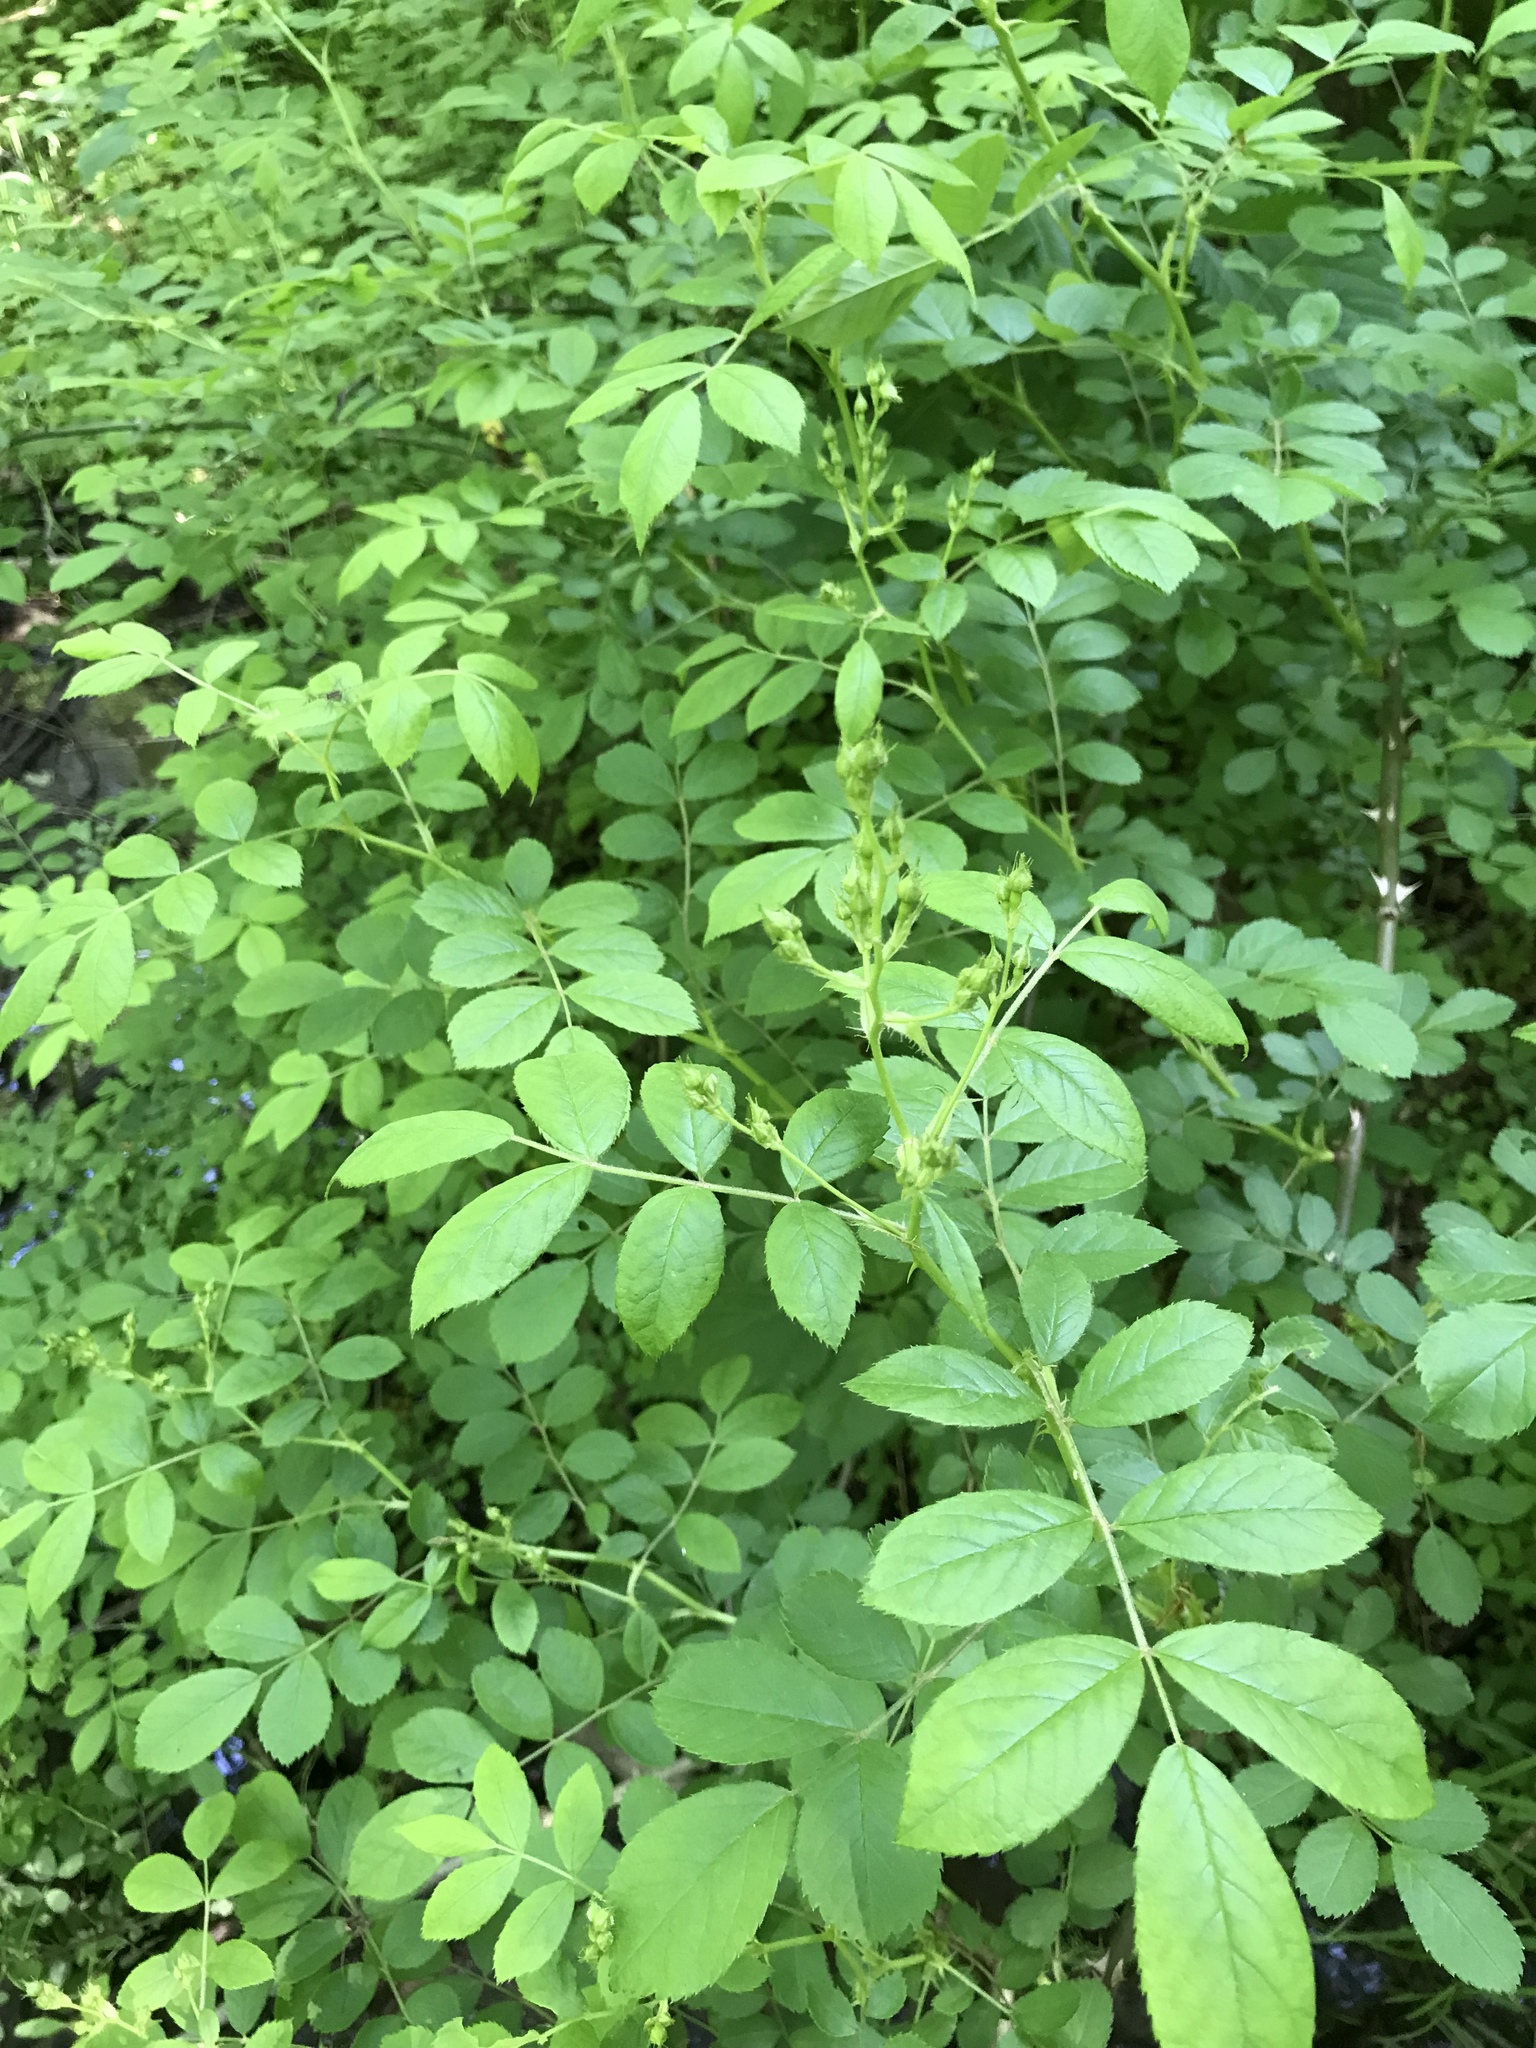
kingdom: Plantae
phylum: Tracheophyta
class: Magnoliopsida
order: Rosales
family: Rosaceae
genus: Rosa
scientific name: Rosa multiflora
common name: Multiflora rose
